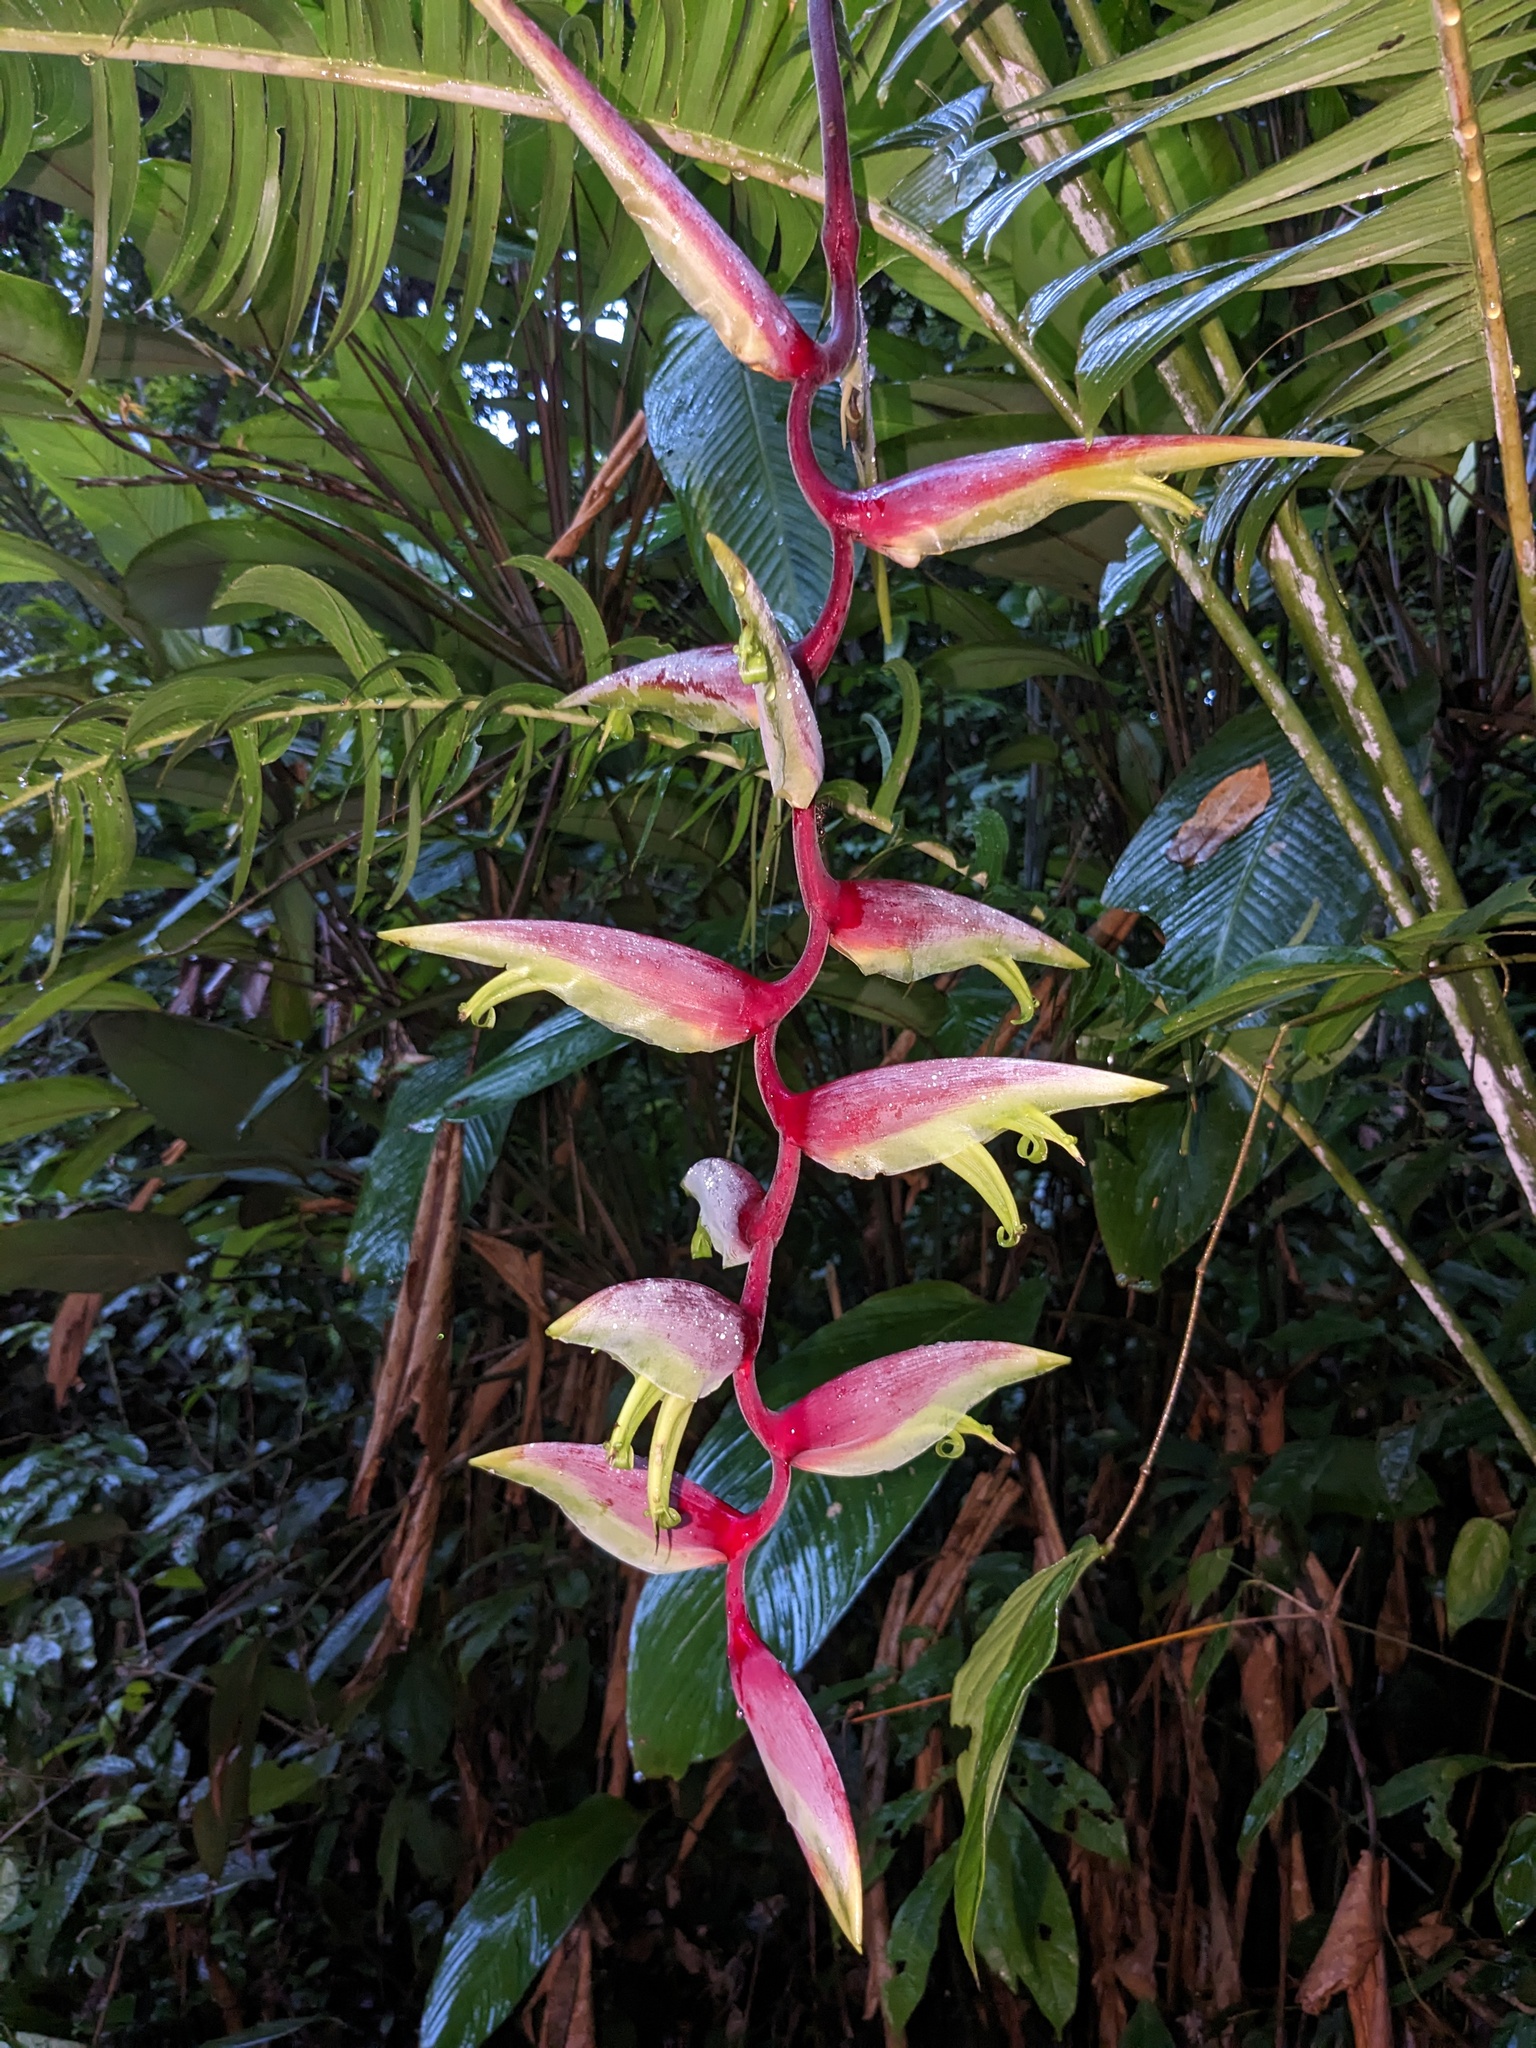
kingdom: Plantae
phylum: Tracheophyta
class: Liliopsida
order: Zingiberales
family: Heliconiaceae
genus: Heliconia
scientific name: Heliconia chartacea
